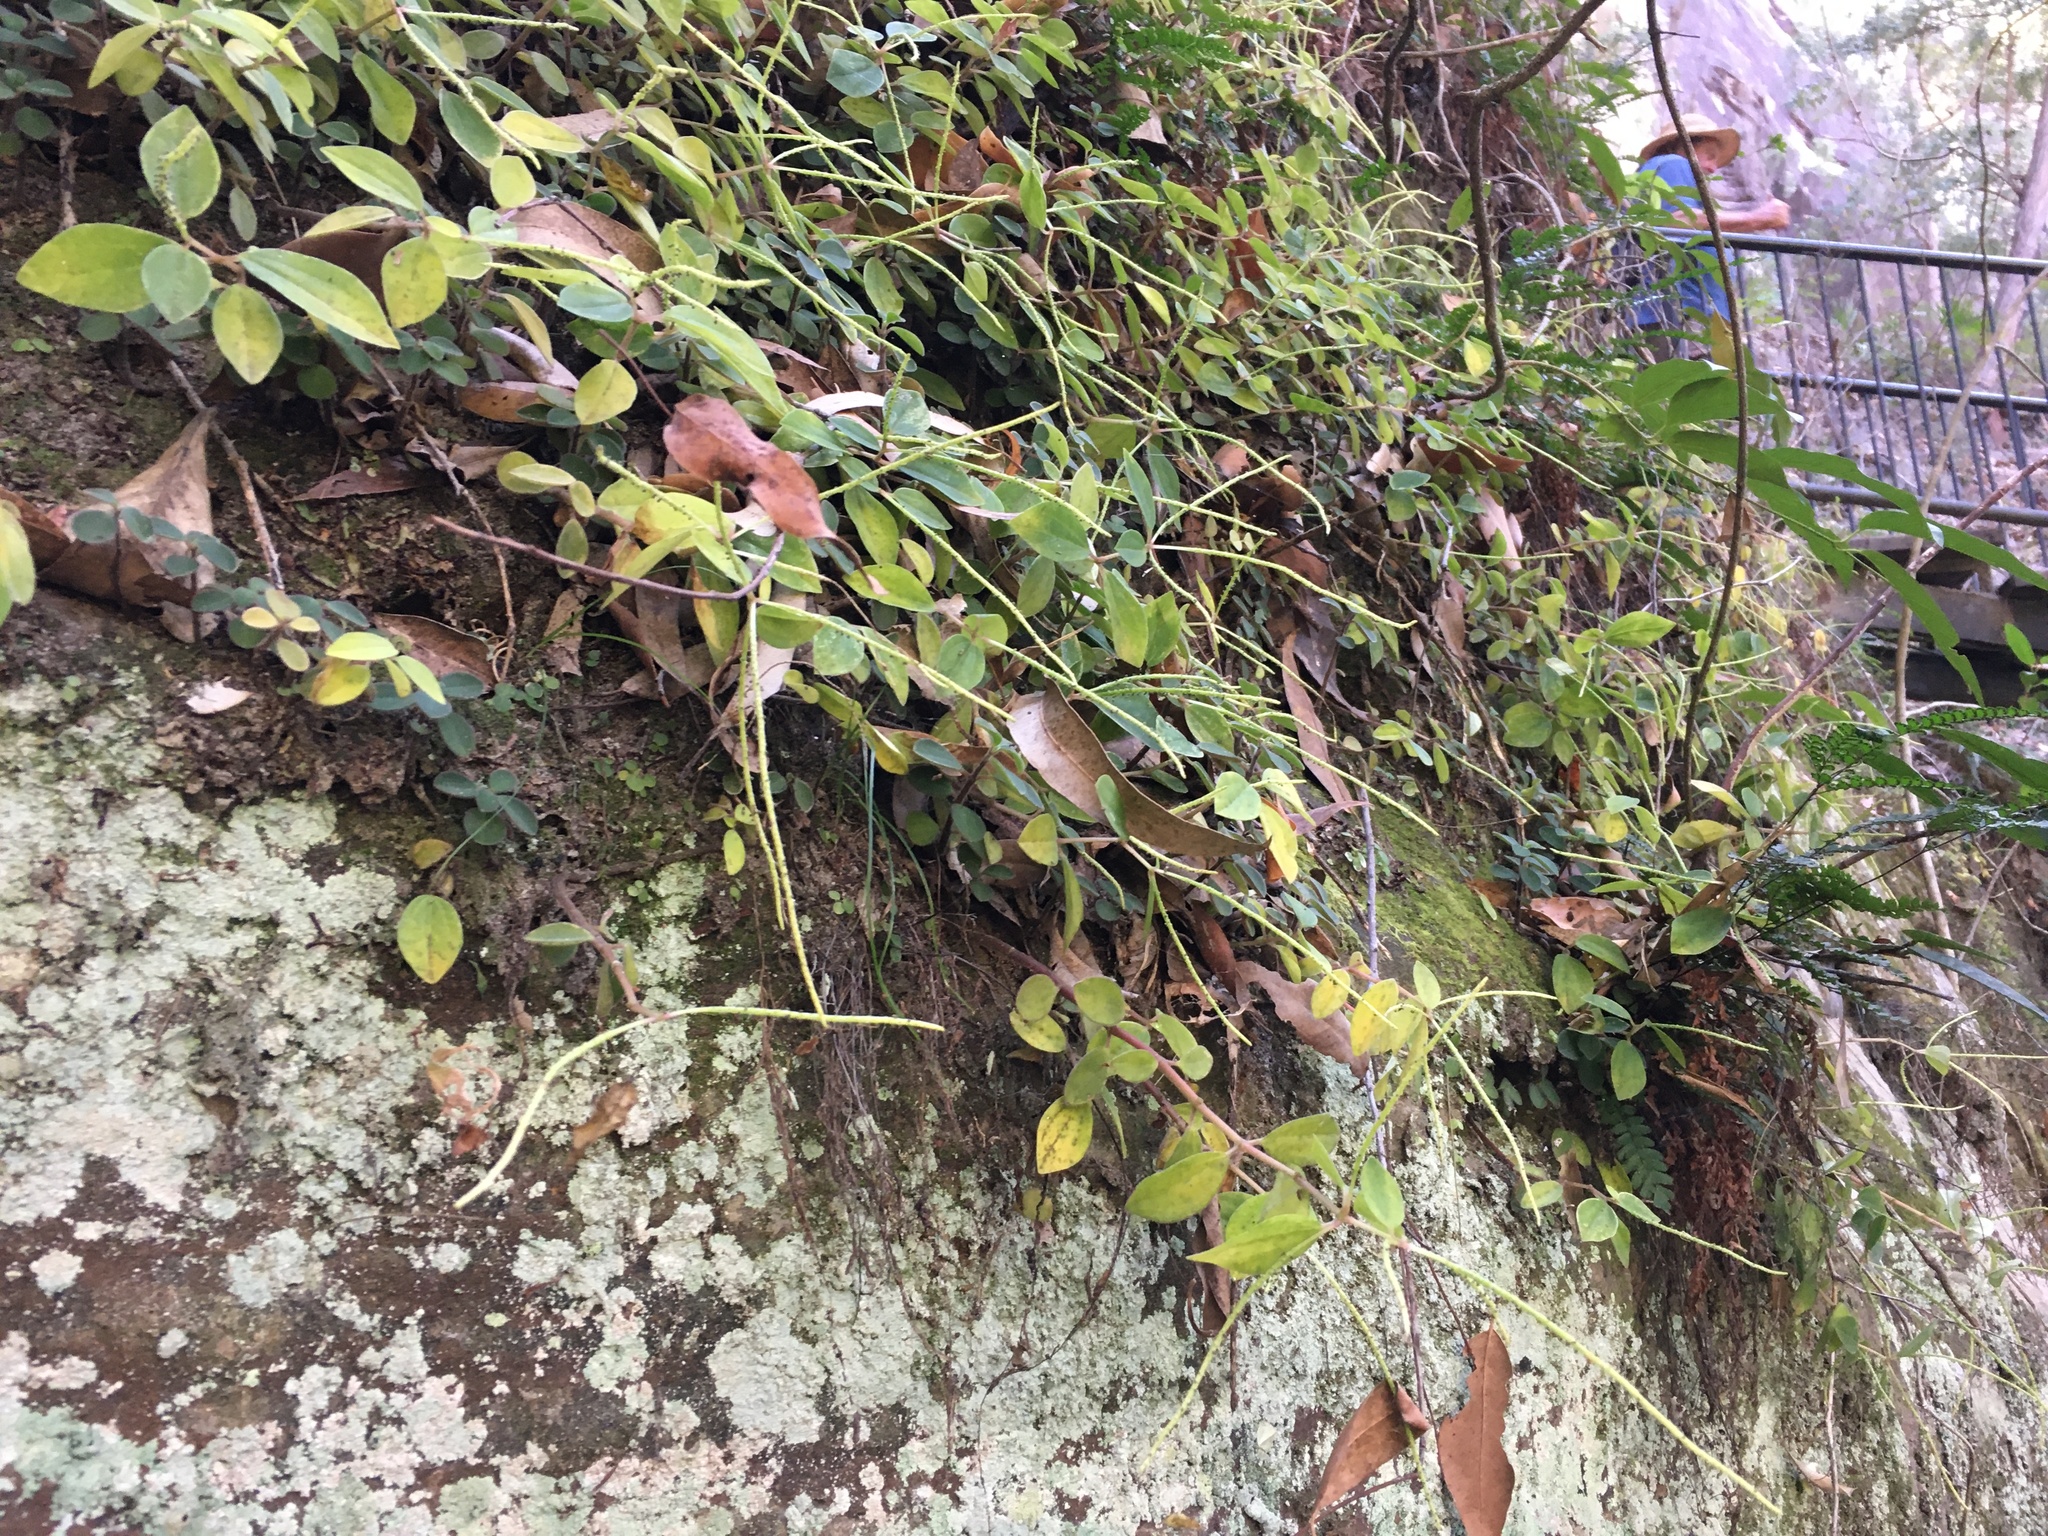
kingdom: Plantae
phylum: Tracheophyta
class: Magnoliopsida
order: Piperales
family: Piperaceae
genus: Peperomia
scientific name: Peperomia leptostachya
